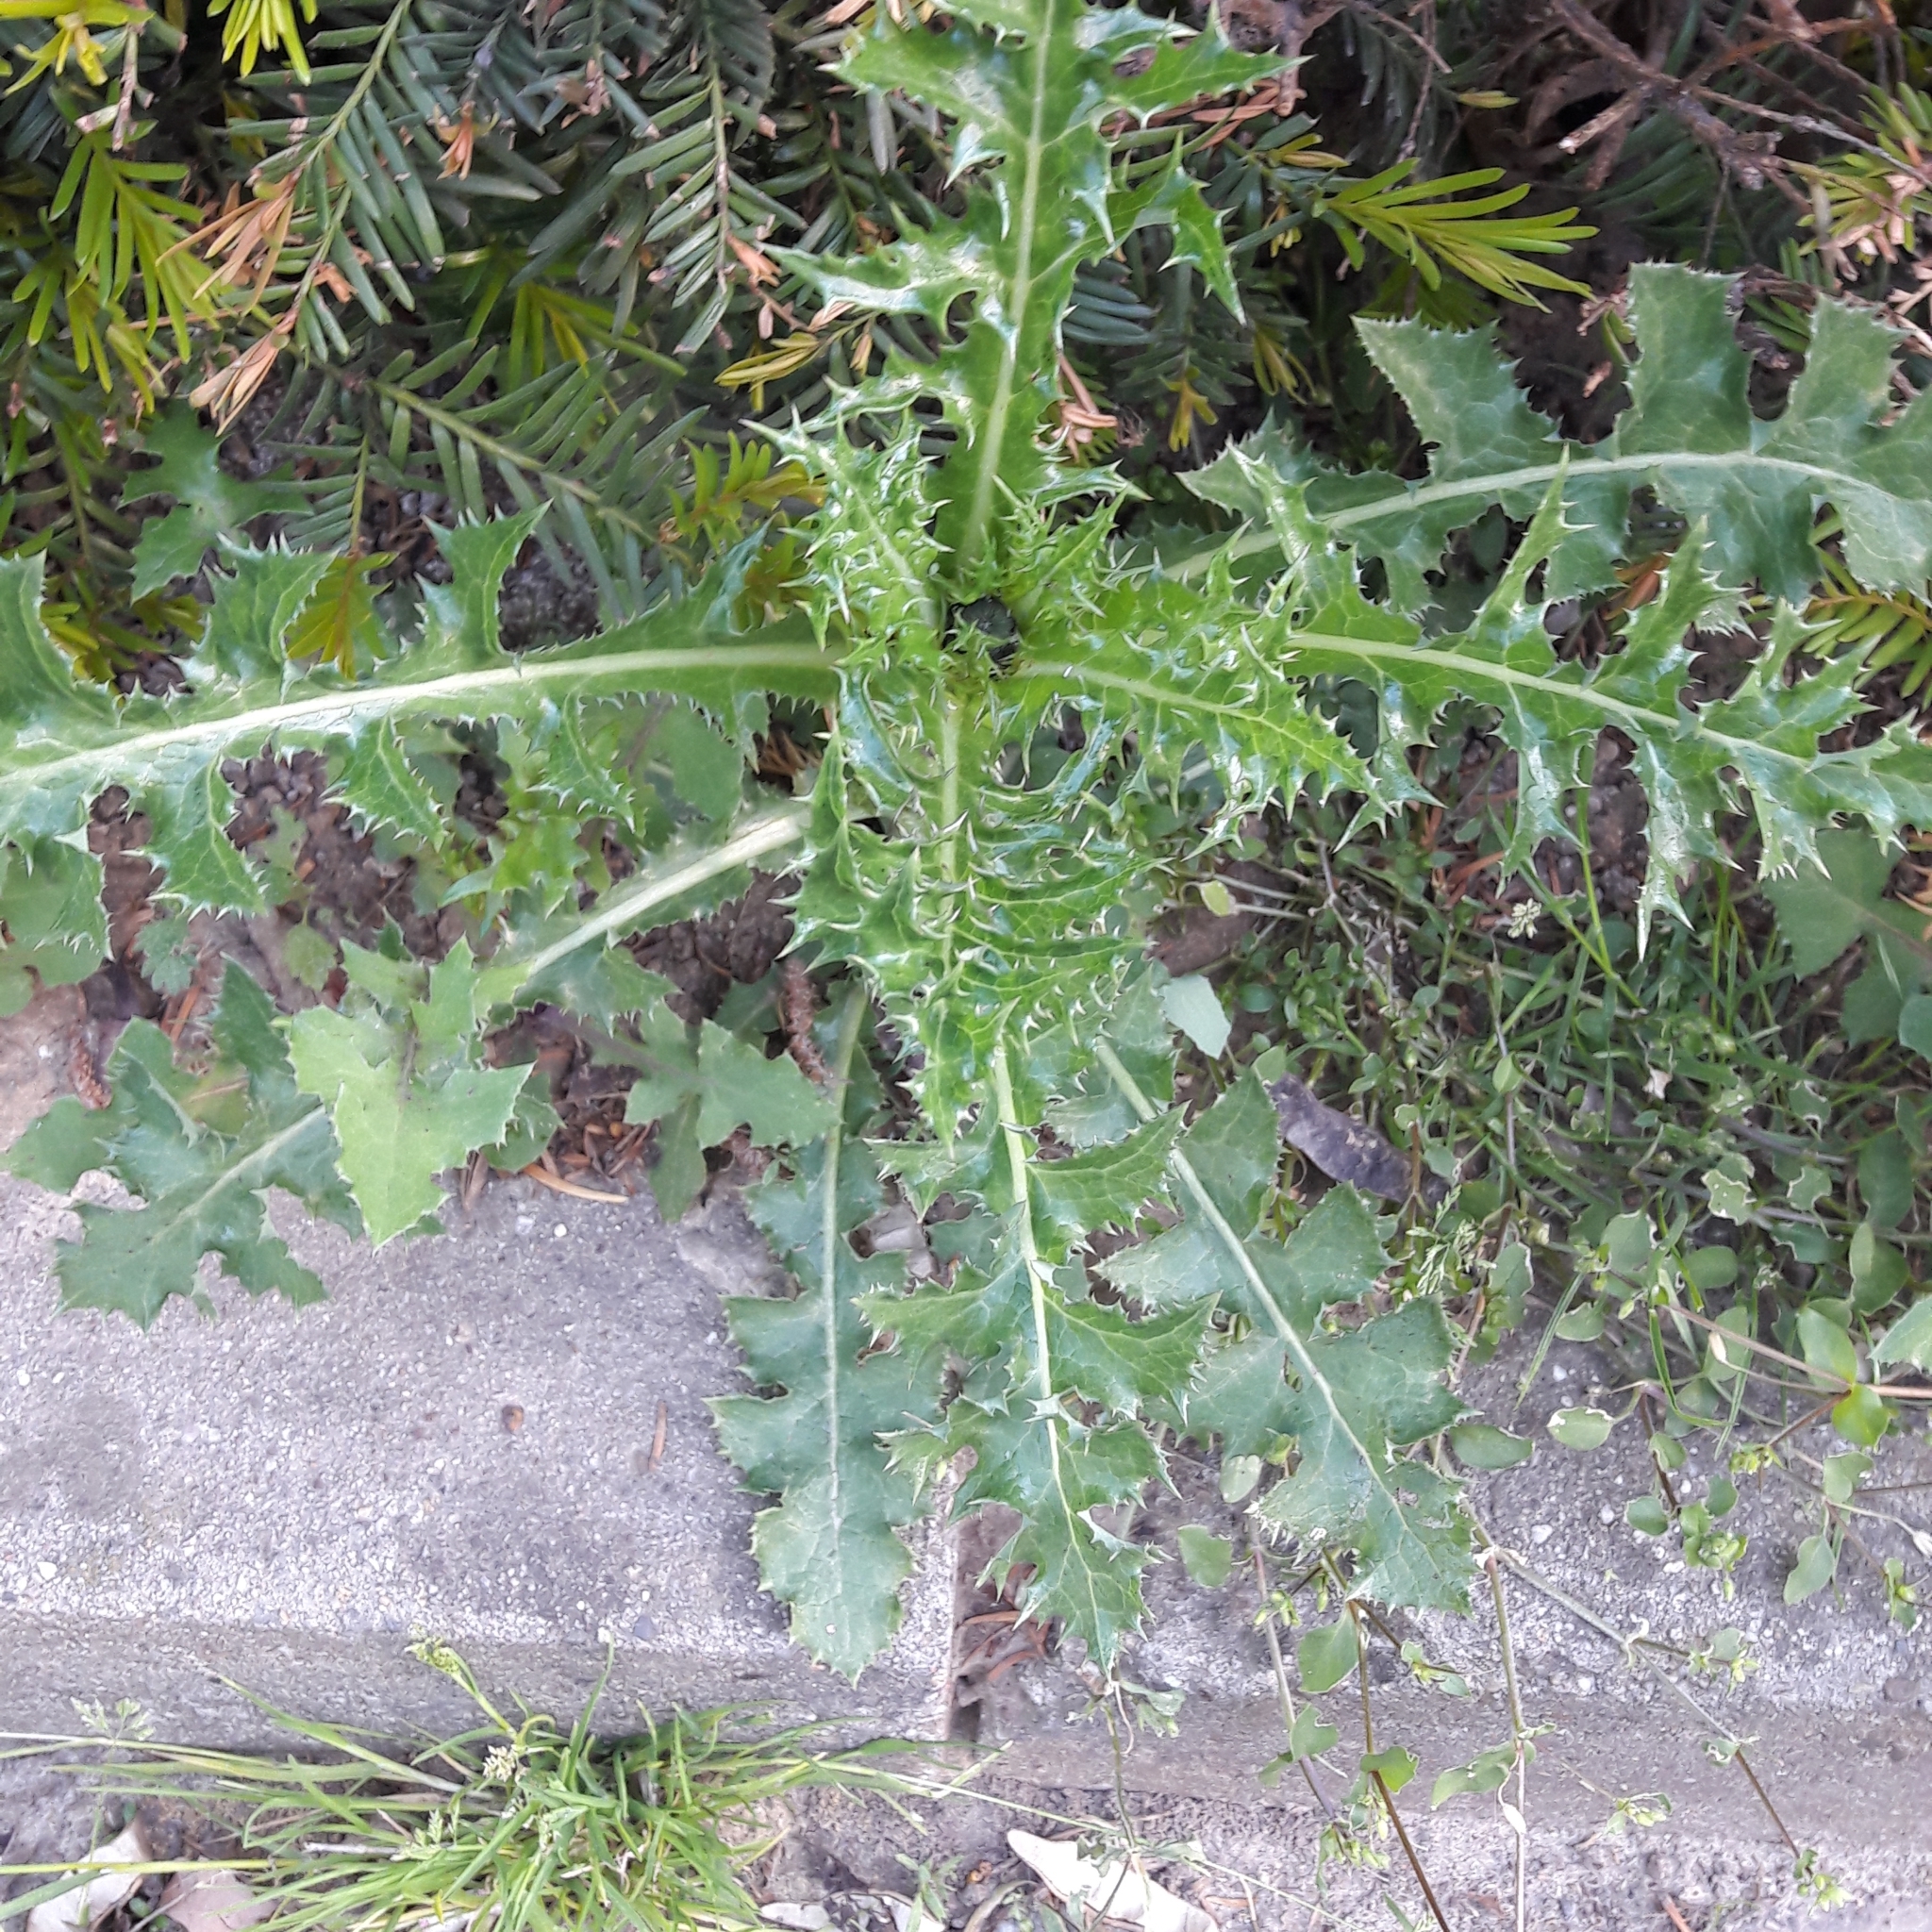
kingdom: Plantae
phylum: Tracheophyta
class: Magnoliopsida
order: Asterales
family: Asteraceae
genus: Sonchus
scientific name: Sonchus asper
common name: Prickly sow-thistle
